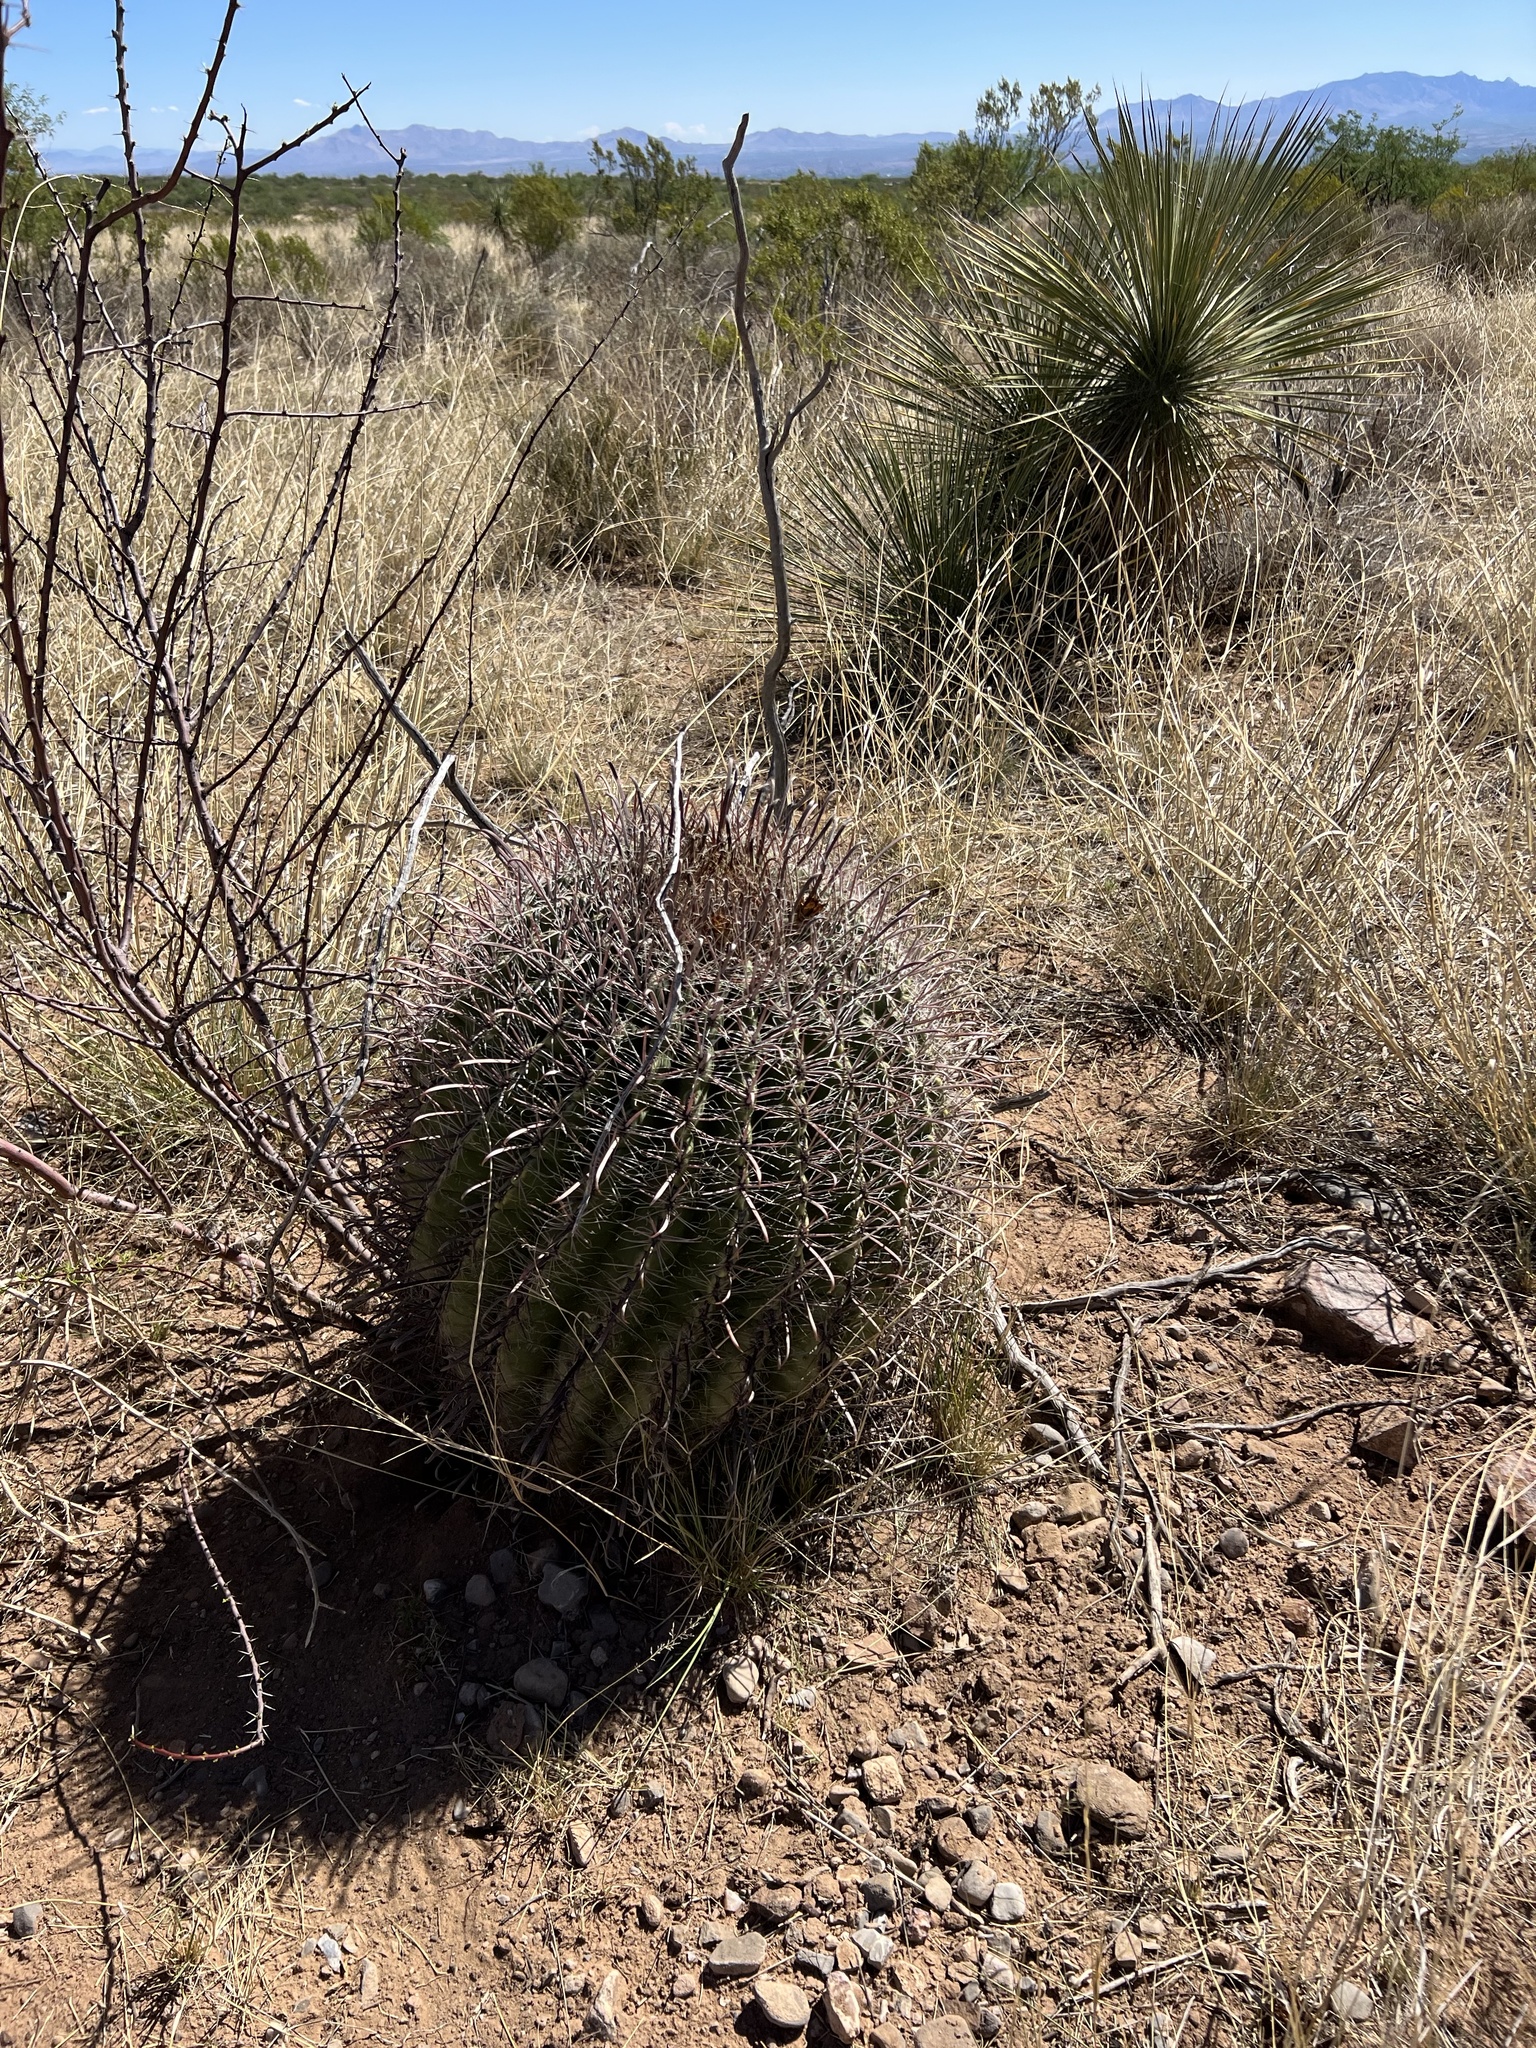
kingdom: Plantae
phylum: Tracheophyta
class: Magnoliopsida
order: Caryophyllales
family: Cactaceae
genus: Ferocactus
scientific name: Ferocactus wislizeni
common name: Candy barrel cactus
